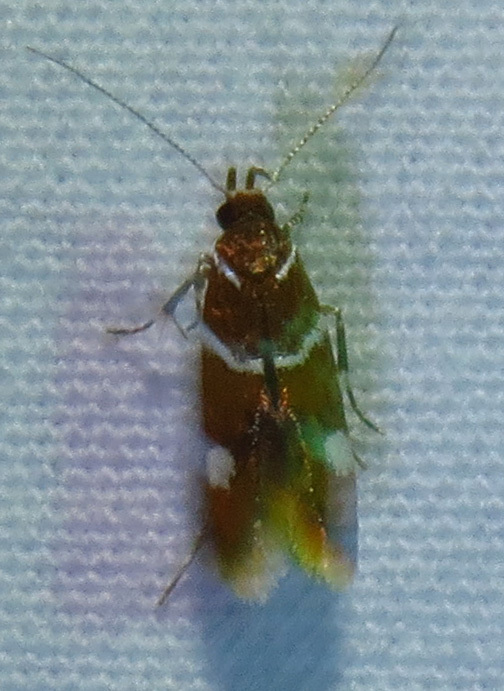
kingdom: Animalia
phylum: Arthropoda
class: Insecta
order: Lepidoptera
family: Oecophoridae
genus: Promalactis
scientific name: Promalactis suzukiella
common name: Moth
